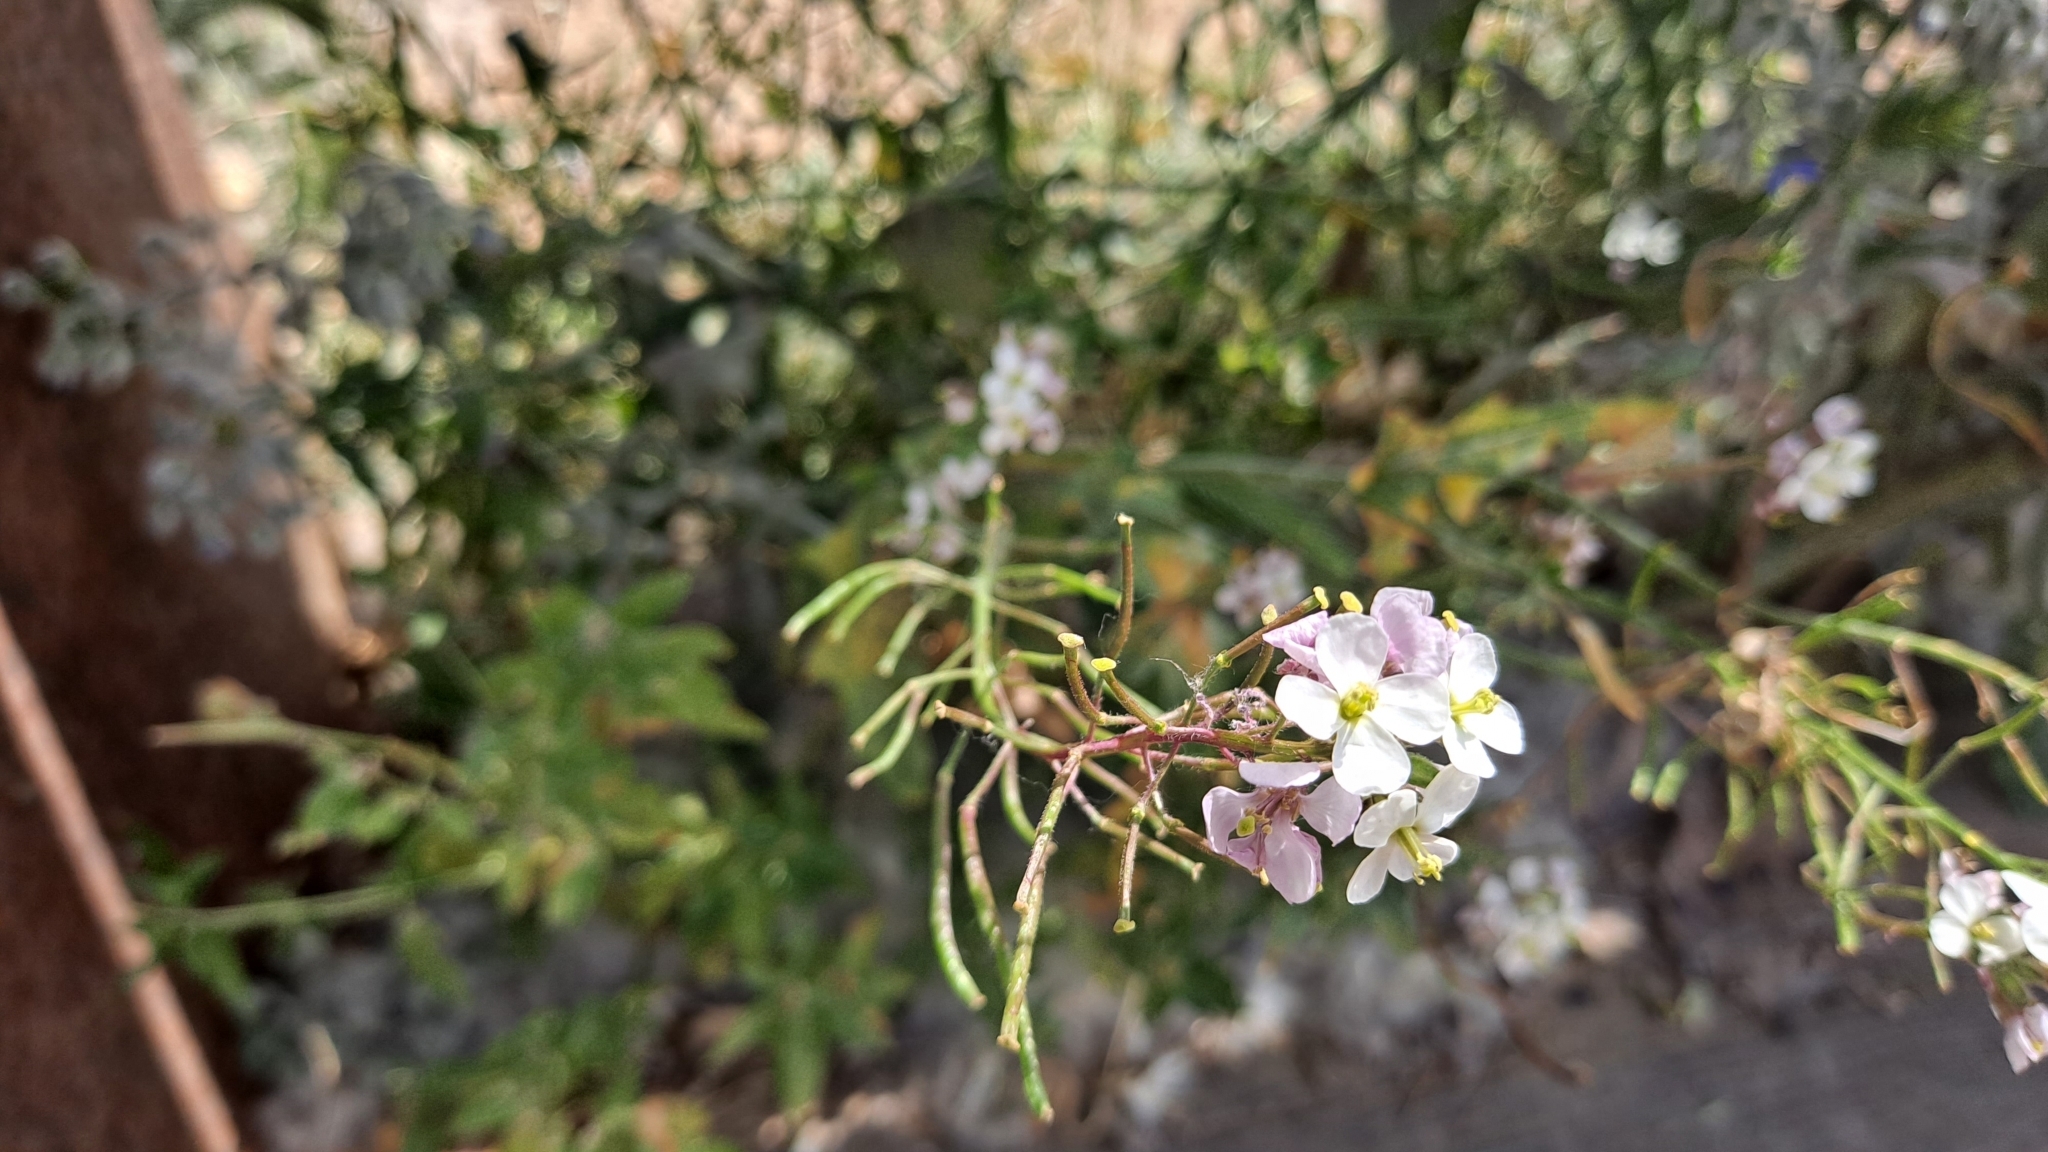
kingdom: Plantae
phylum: Tracheophyta
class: Magnoliopsida
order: Brassicales
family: Brassicaceae
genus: Diplotaxis
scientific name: Diplotaxis erucoides
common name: White rocket
